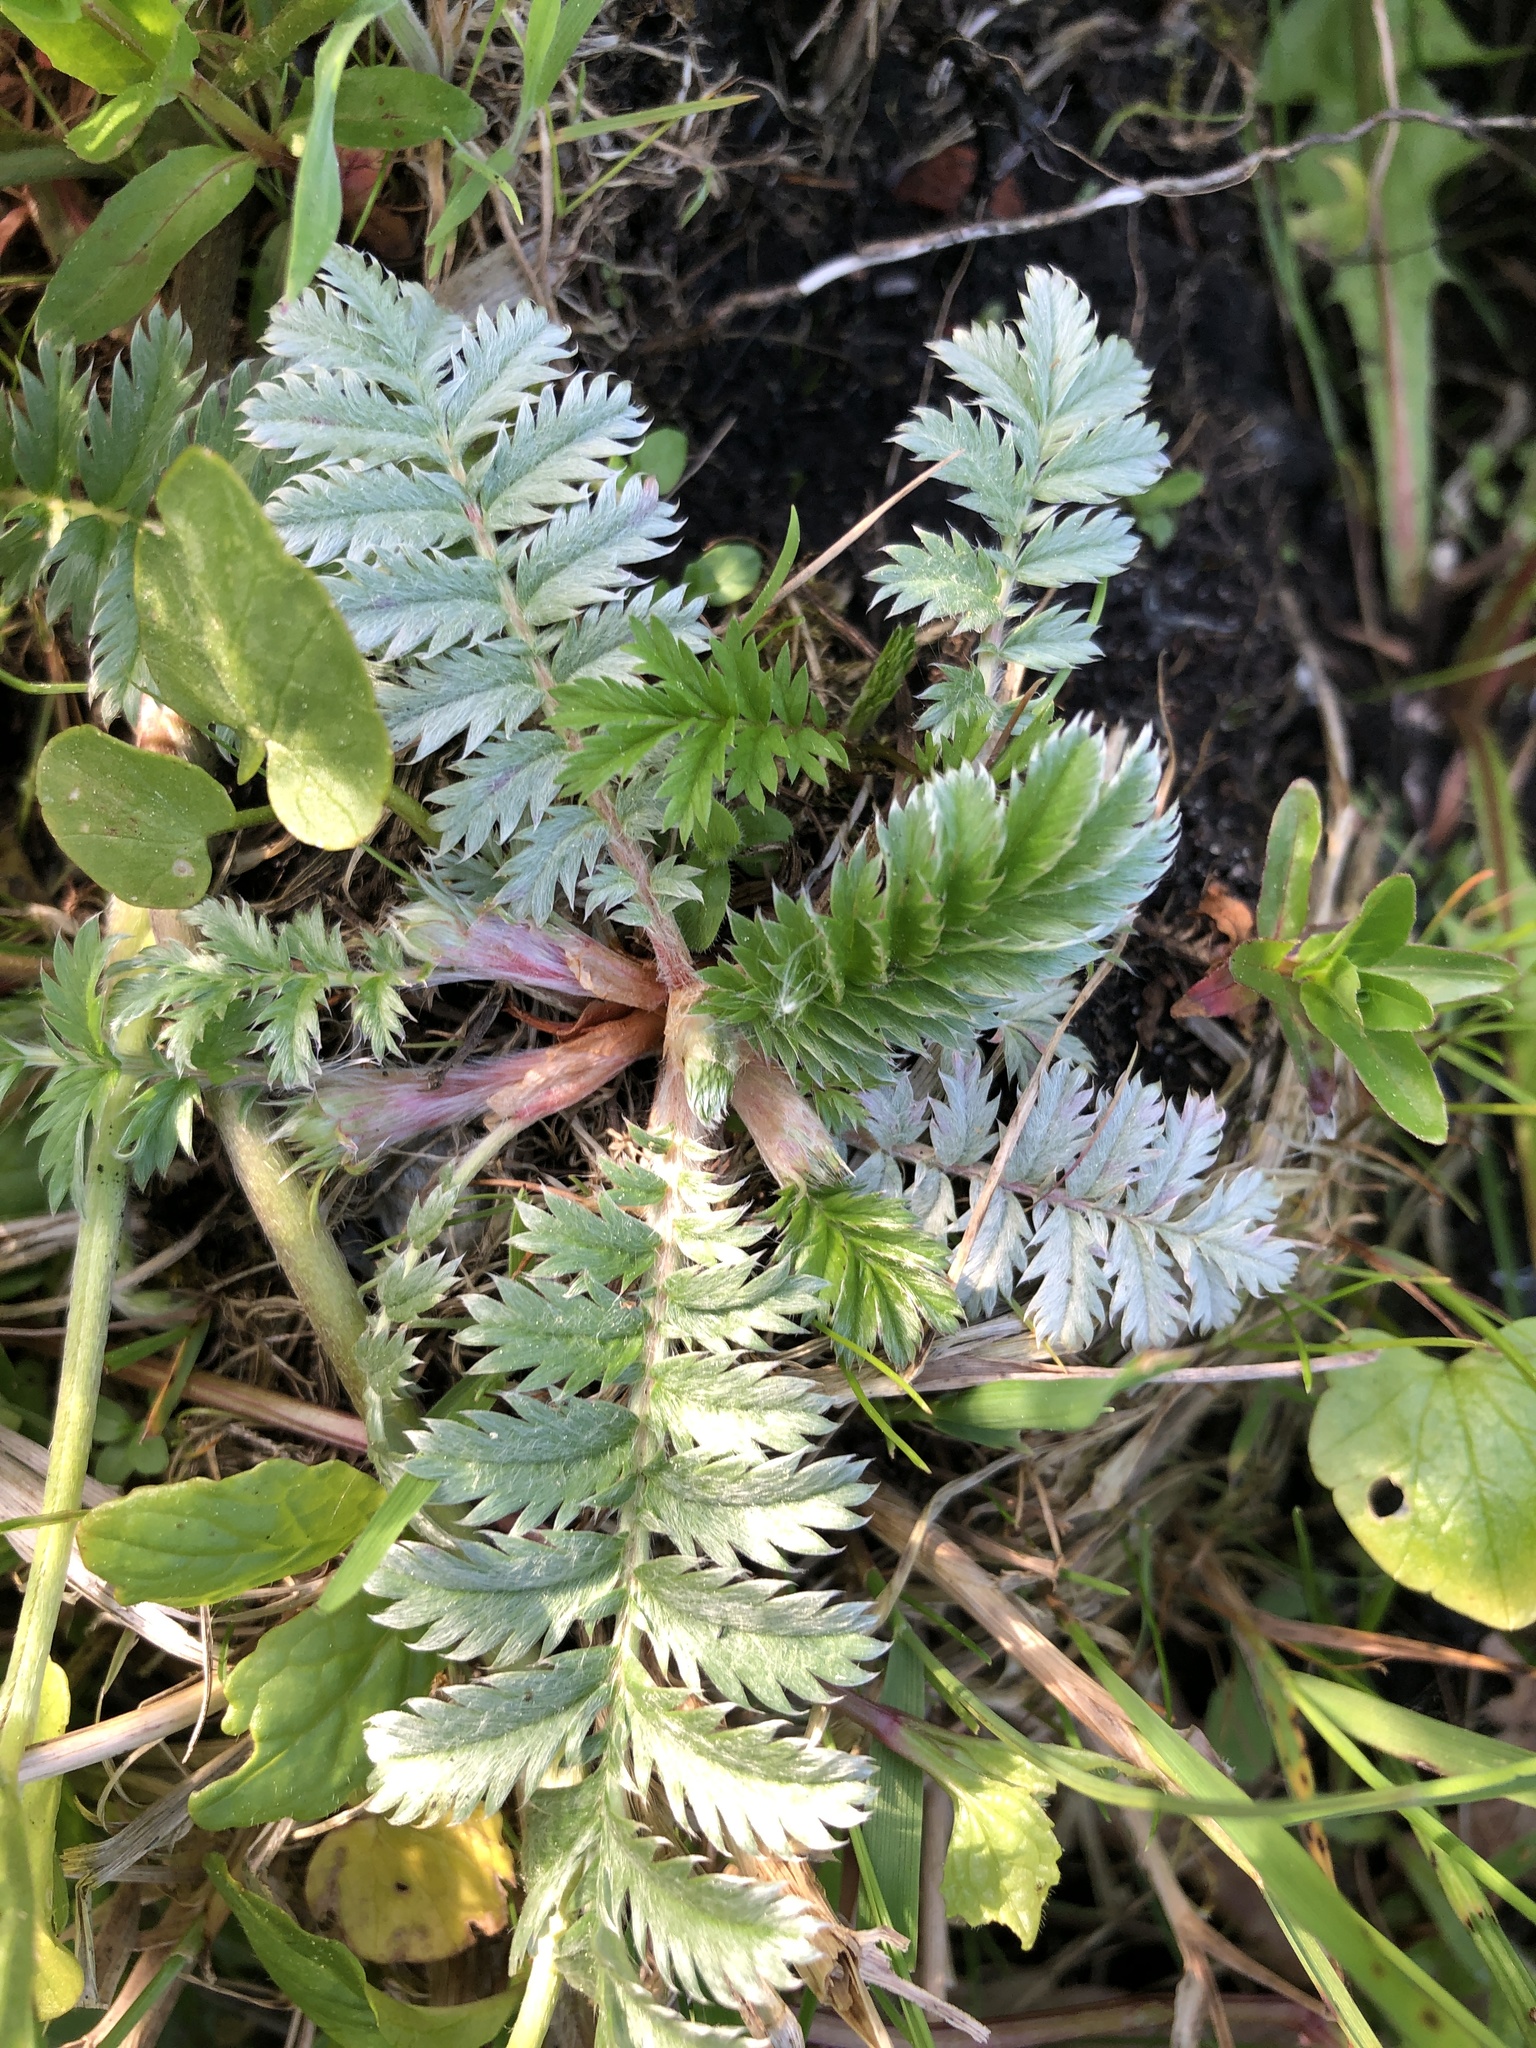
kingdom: Plantae
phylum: Tracheophyta
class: Magnoliopsida
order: Rosales
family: Rosaceae
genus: Argentina
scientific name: Argentina anserina
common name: Common silverweed
